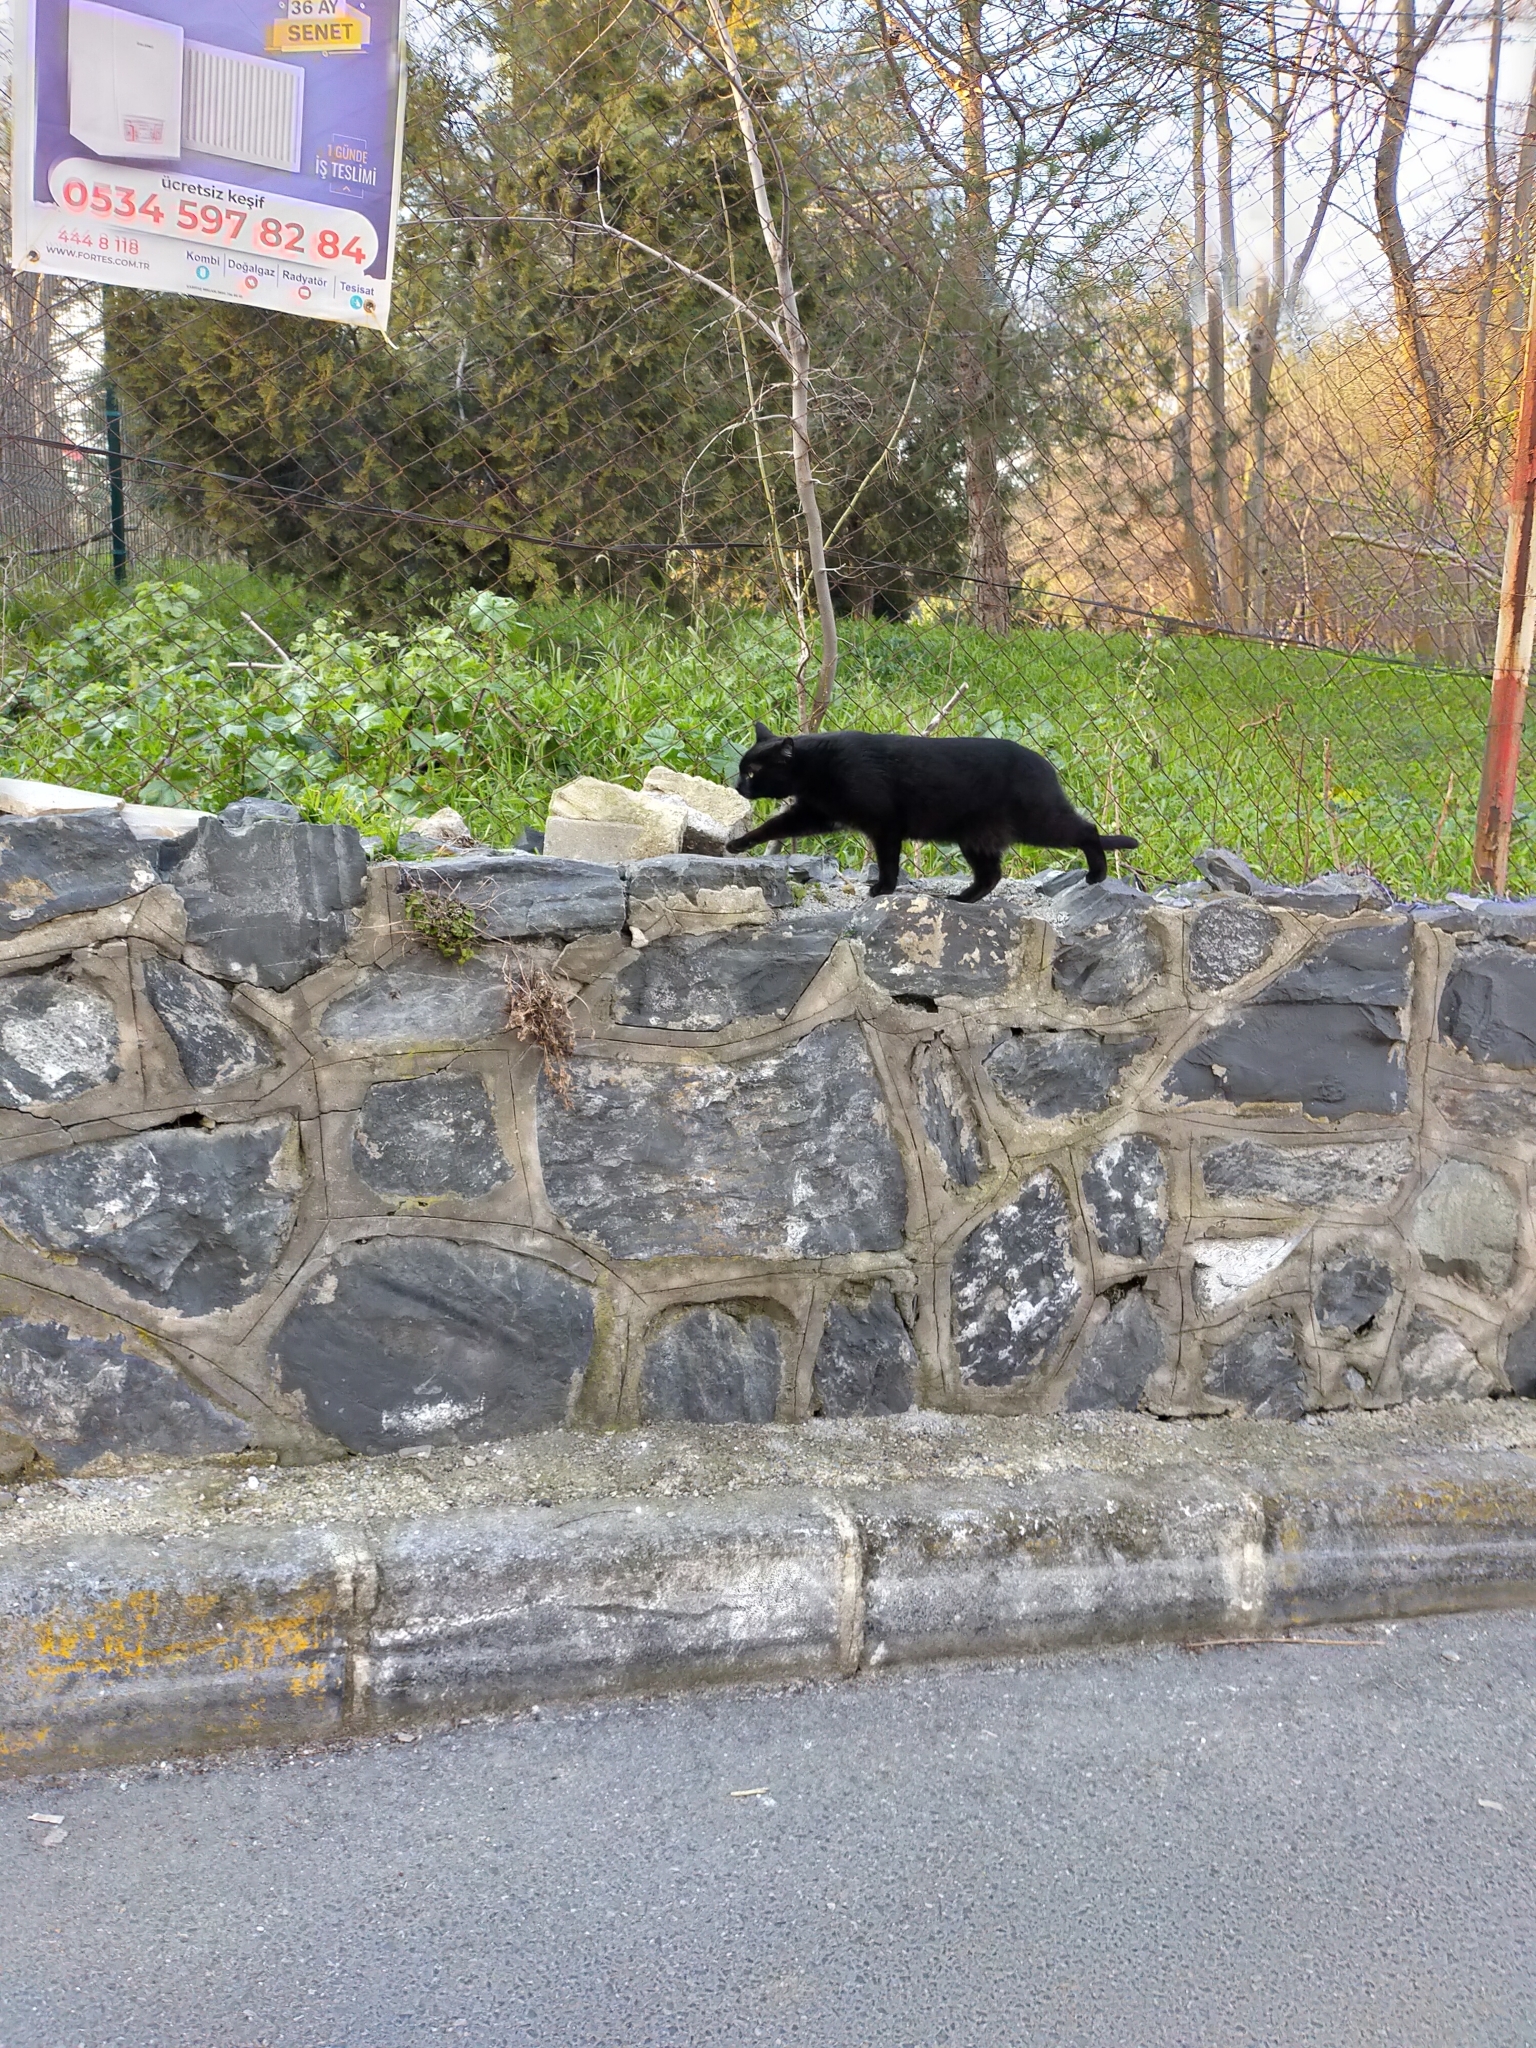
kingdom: Animalia
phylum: Chordata
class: Mammalia
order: Carnivora
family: Felidae
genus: Felis
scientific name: Felis catus
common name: Domestic cat
